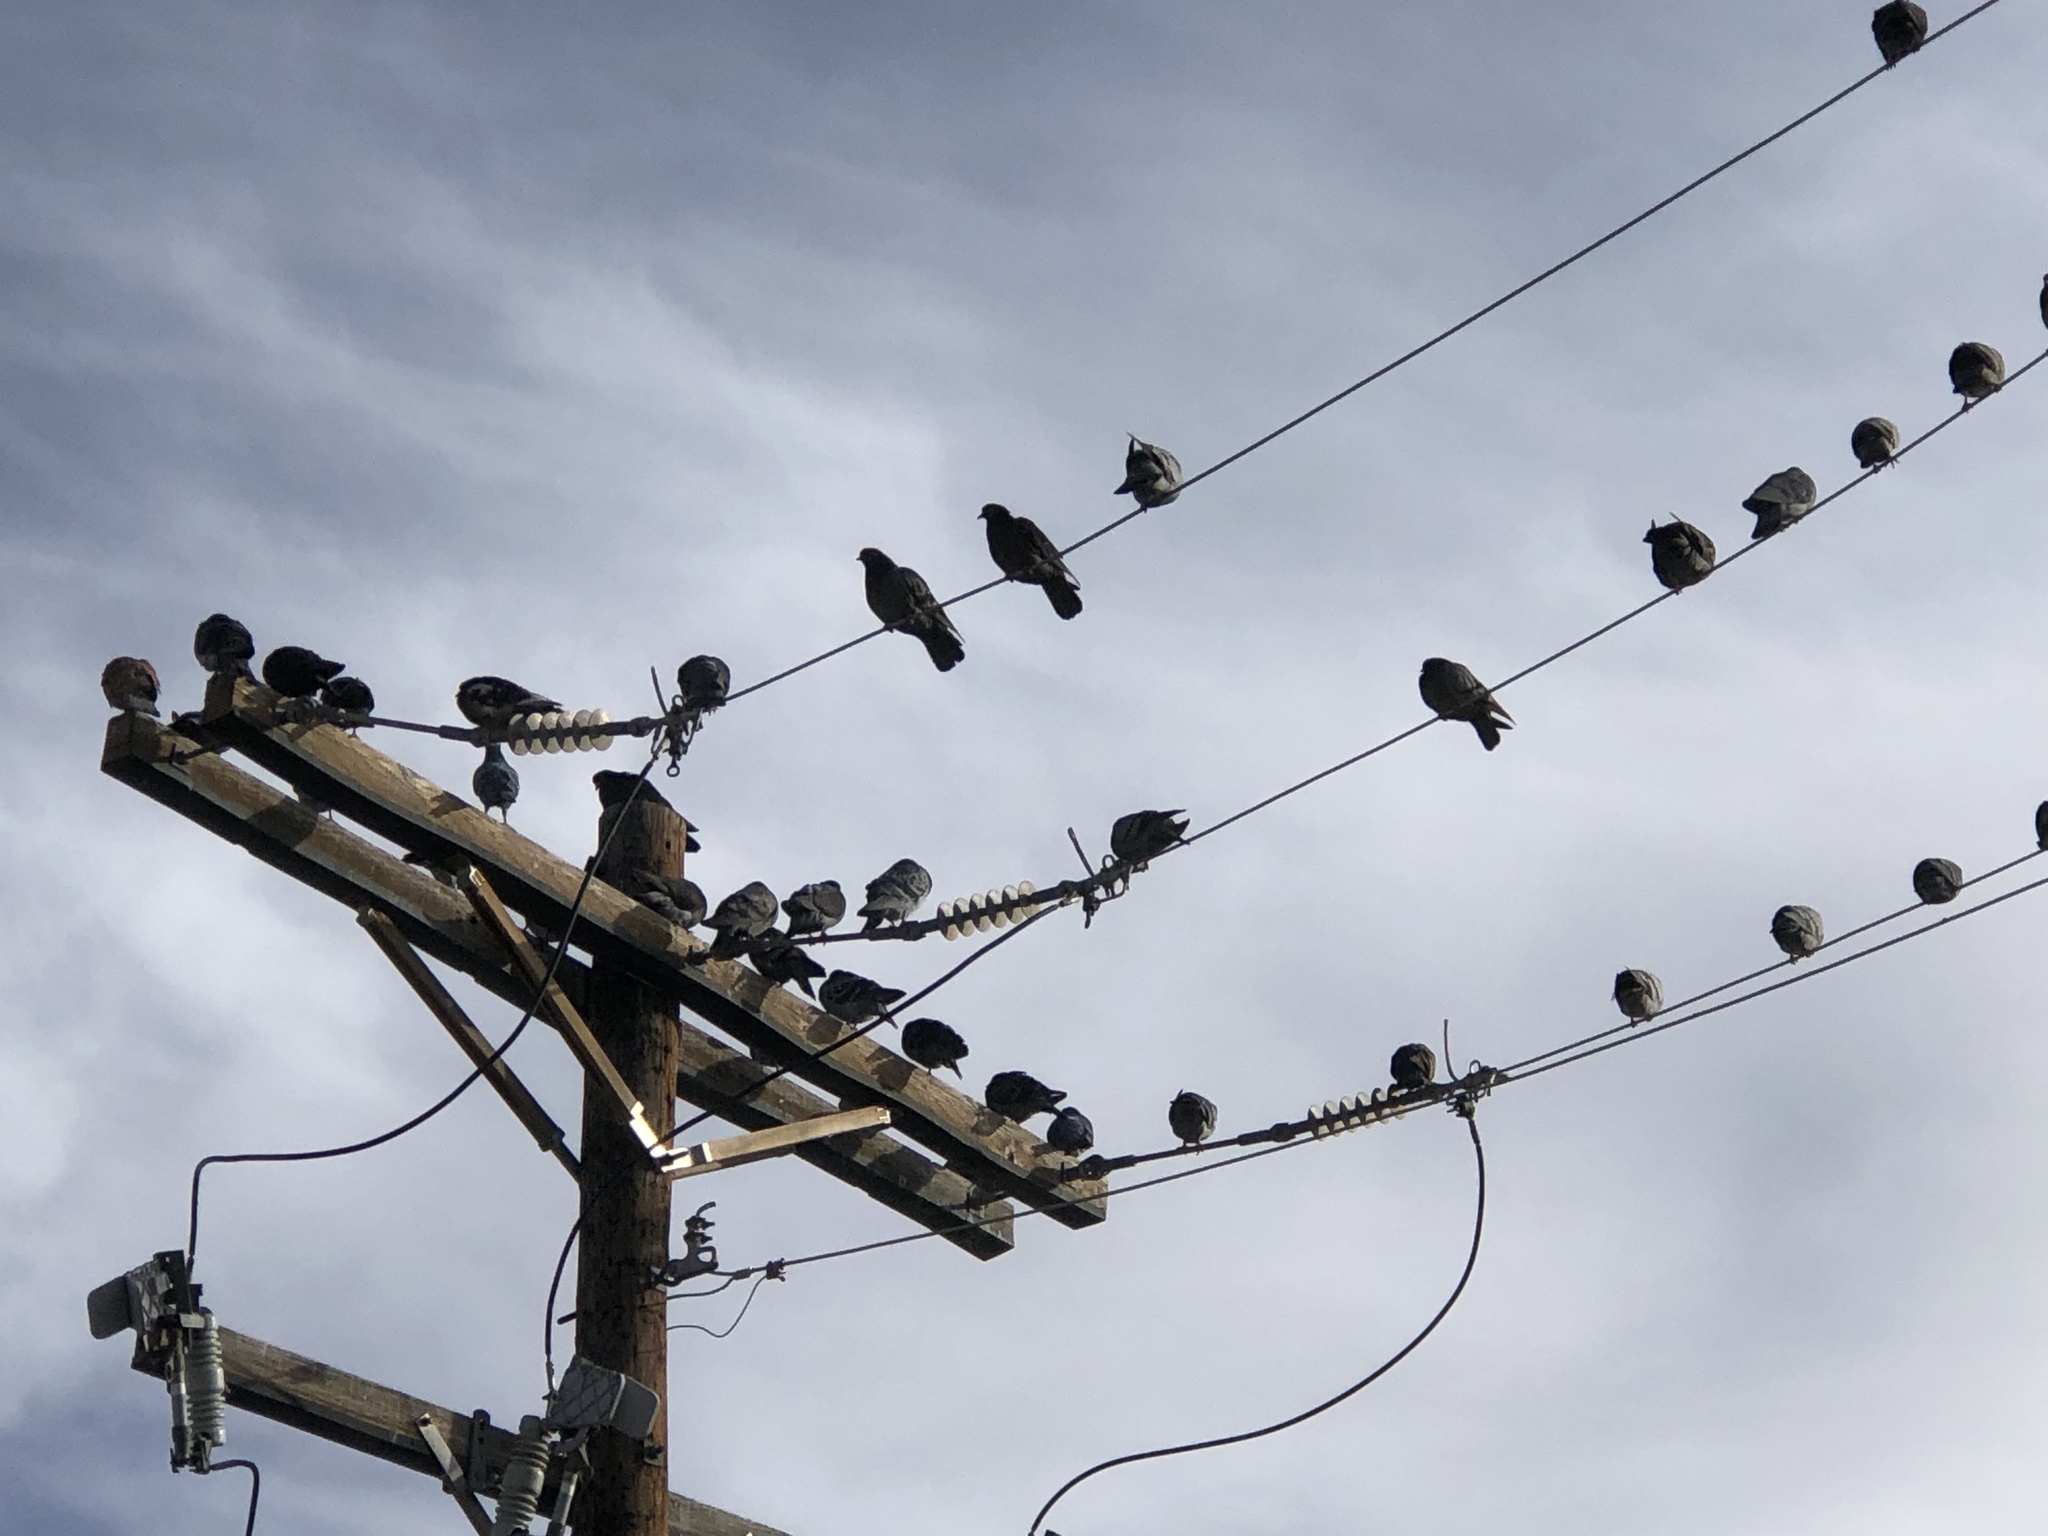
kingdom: Animalia
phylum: Chordata
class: Aves
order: Columbiformes
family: Columbidae
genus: Columba
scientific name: Columba livia
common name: Rock pigeon
